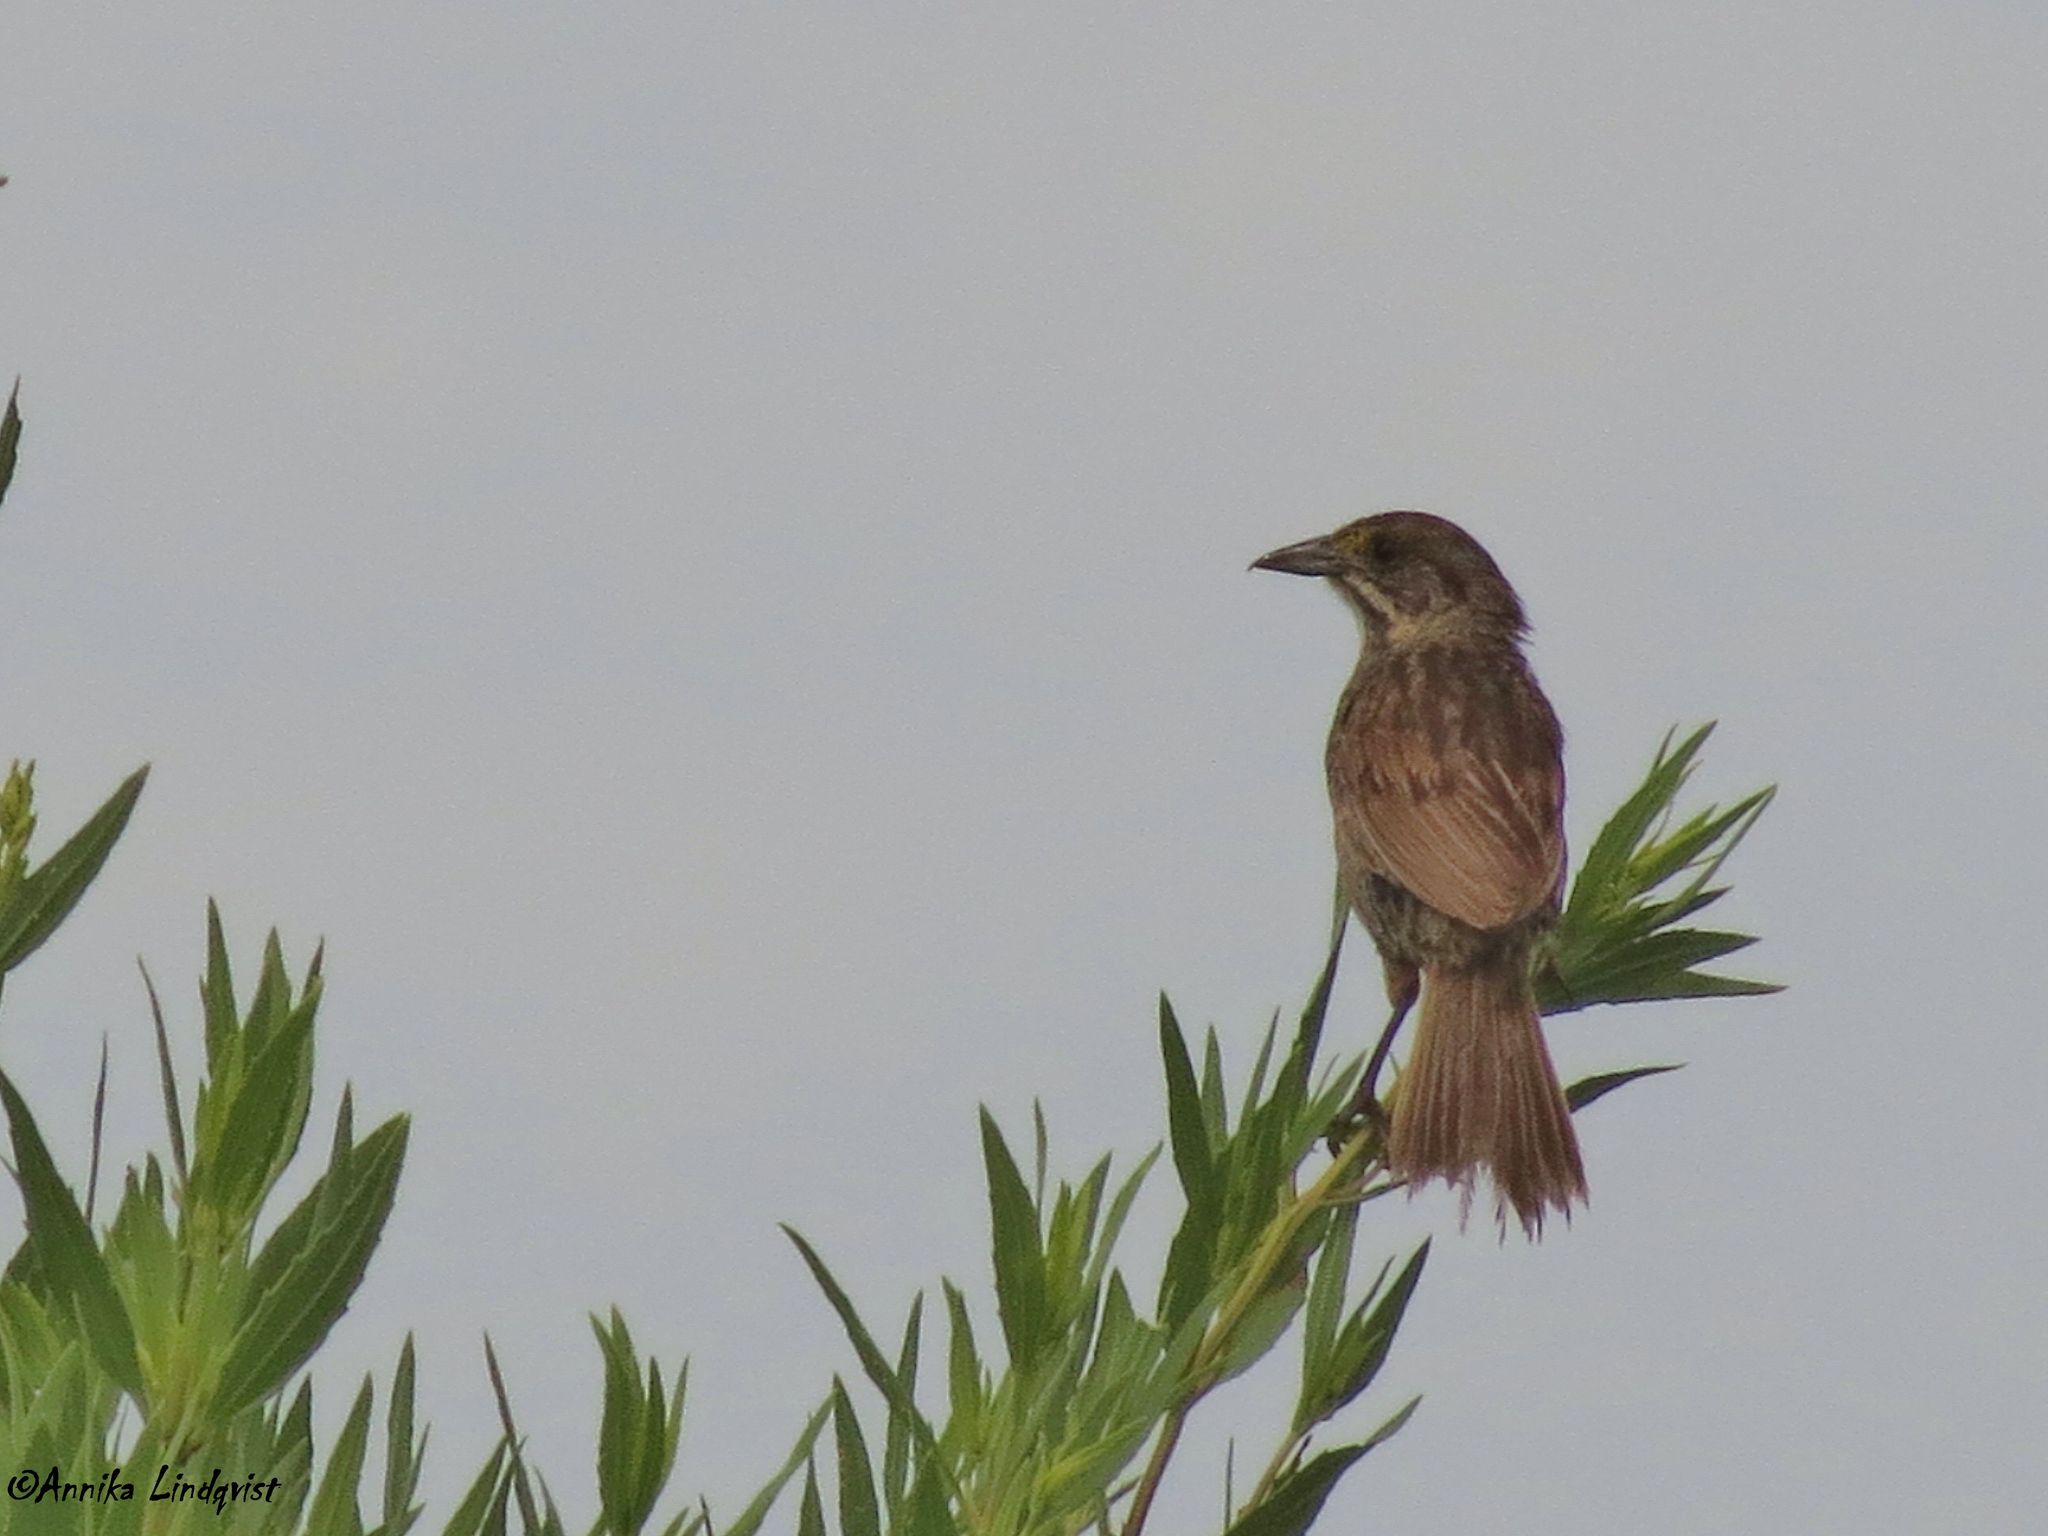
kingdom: Animalia
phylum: Chordata
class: Aves
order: Passeriformes
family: Passerellidae
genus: Ammospiza
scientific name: Ammospiza maritima
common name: Seaside sparrow
